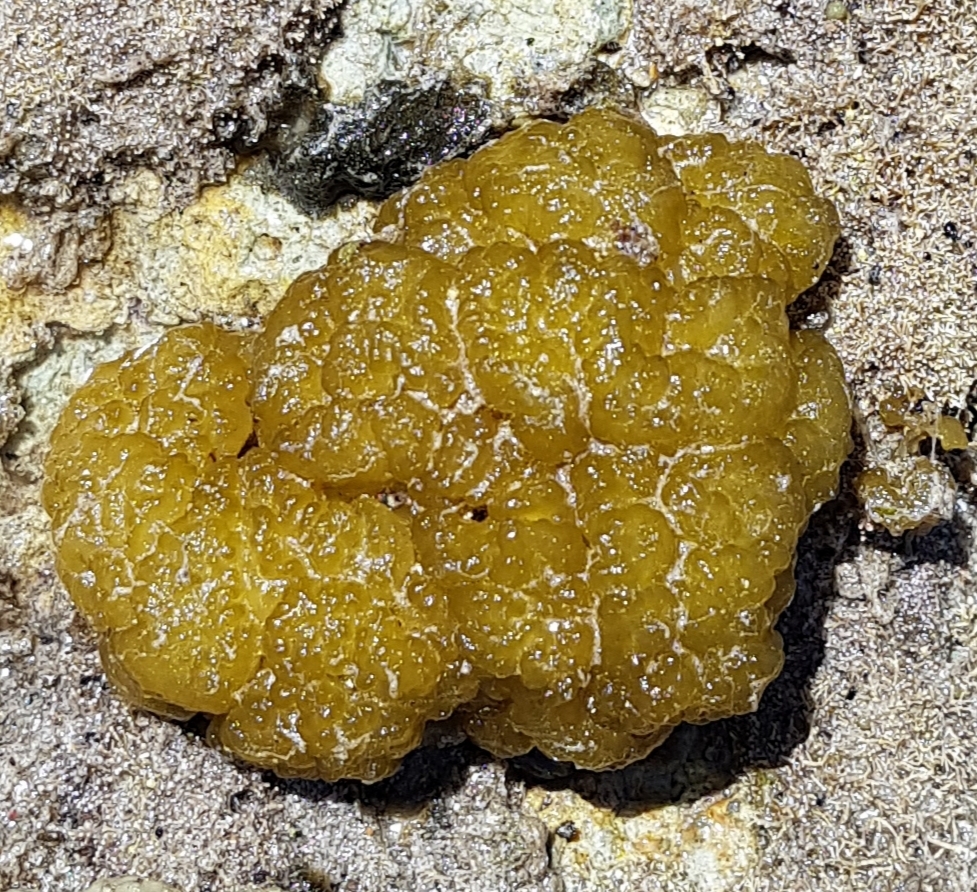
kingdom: Chromista
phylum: Ochrophyta
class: Phaeophyceae
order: Ectocarpales
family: Chordariaceae
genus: Leathesia
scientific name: Leathesia marina
